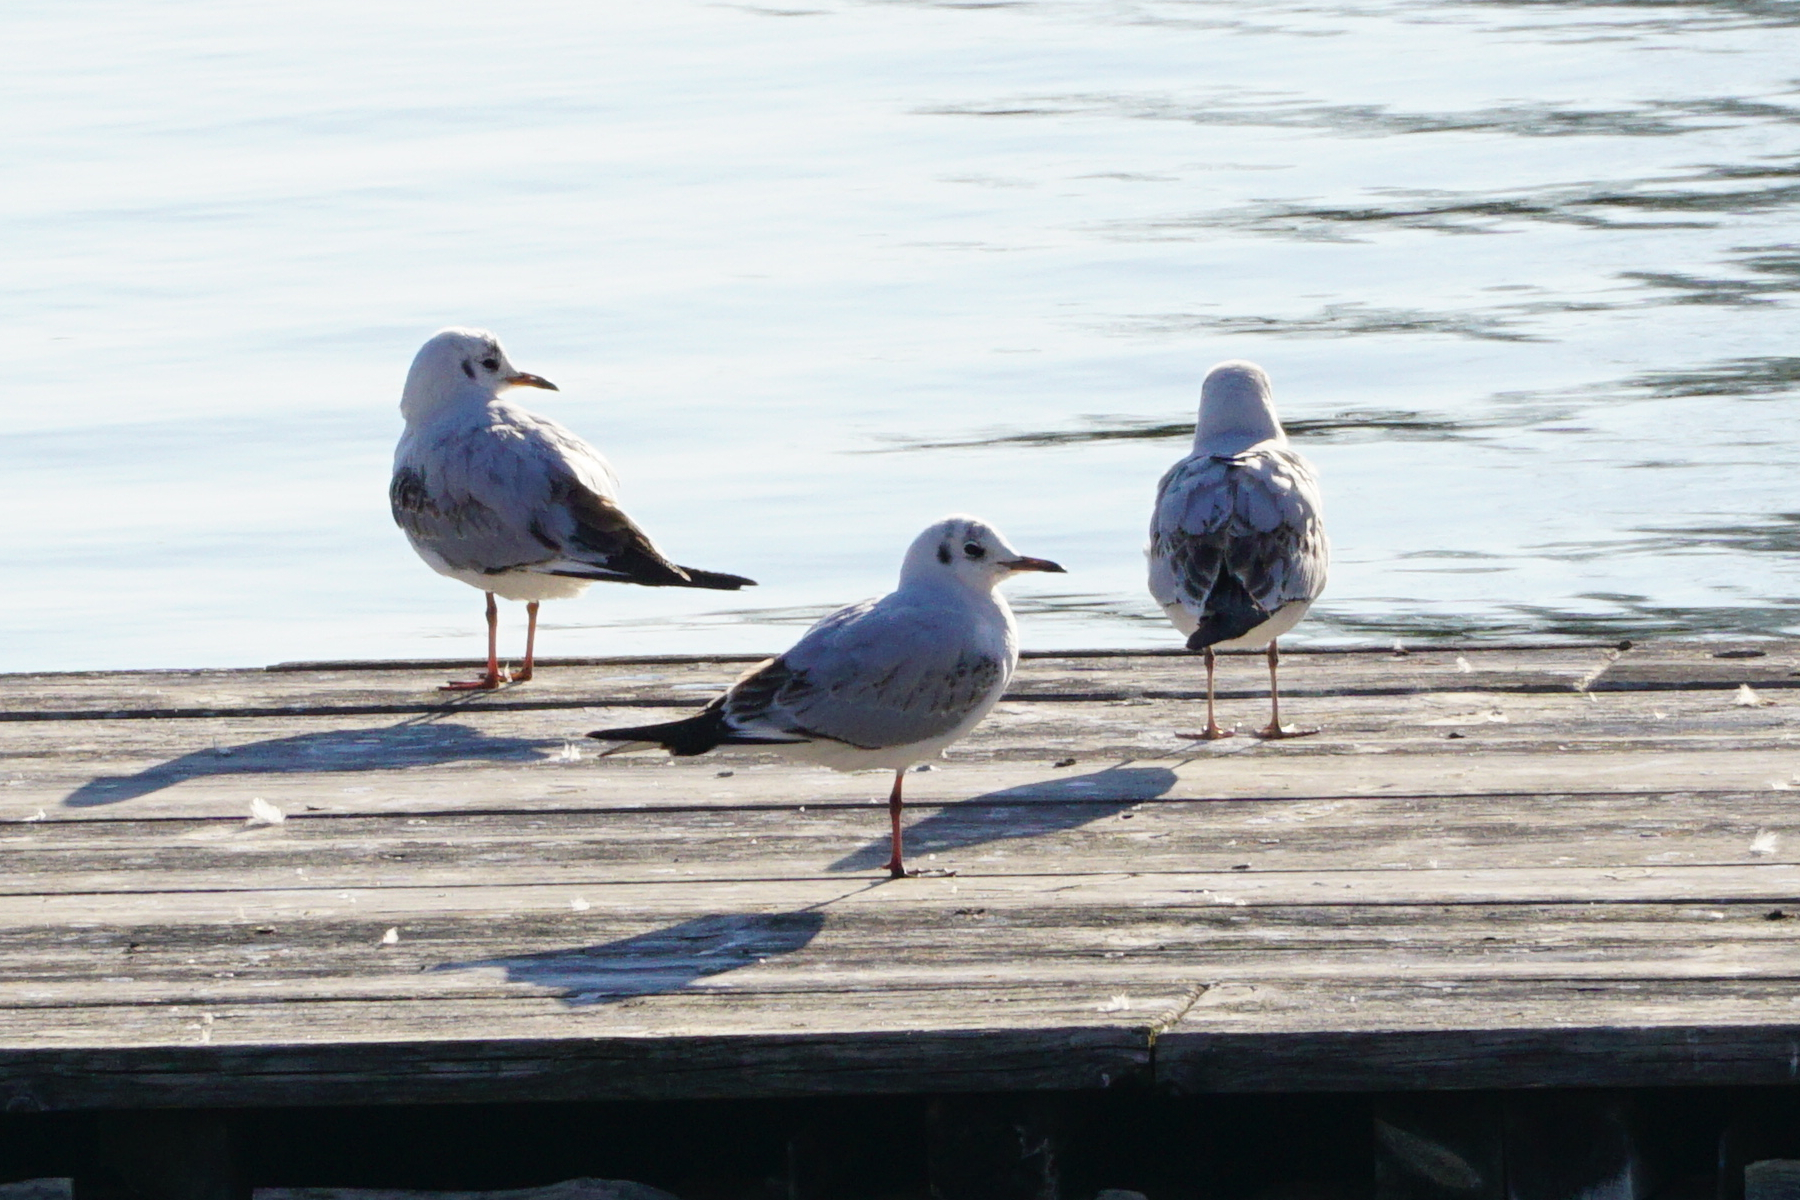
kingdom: Animalia
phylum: Chordata
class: Aves
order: Charadriiformes
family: Laridae
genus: Chroicocephalus
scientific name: Chroicocephalus ridibundus
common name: Black-headed gull
